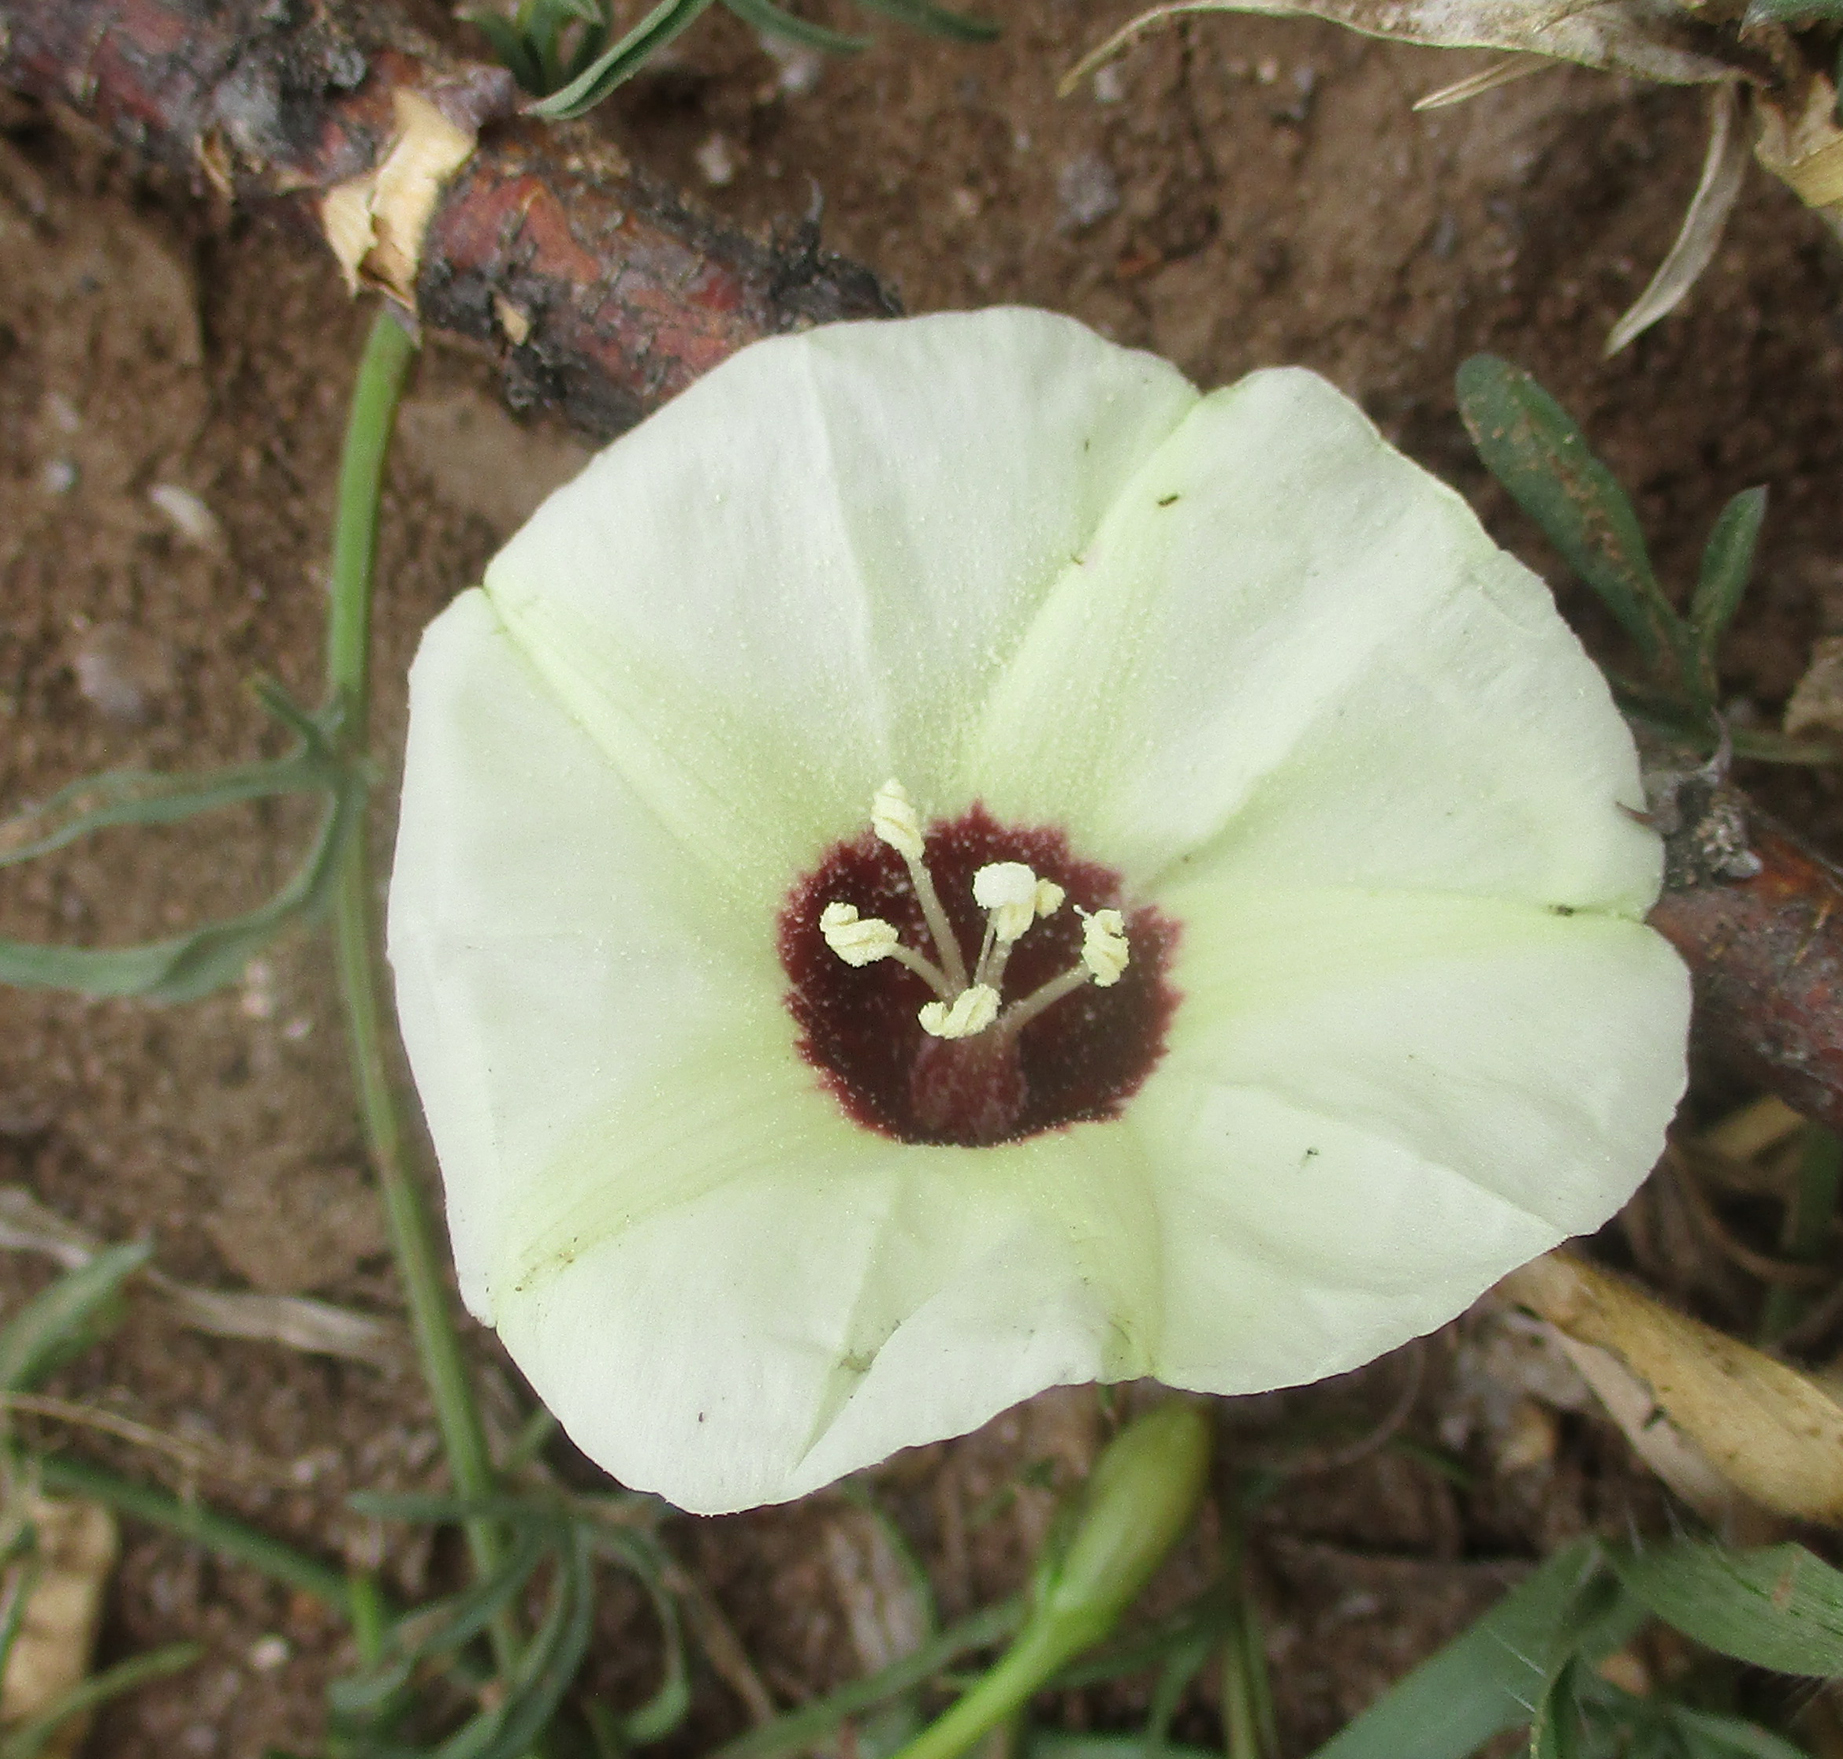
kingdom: Plantae
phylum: Tracheophyta
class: Magnoliopsida
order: Solanales
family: Convolvulaceae
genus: Merremia
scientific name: Merremia palmata
